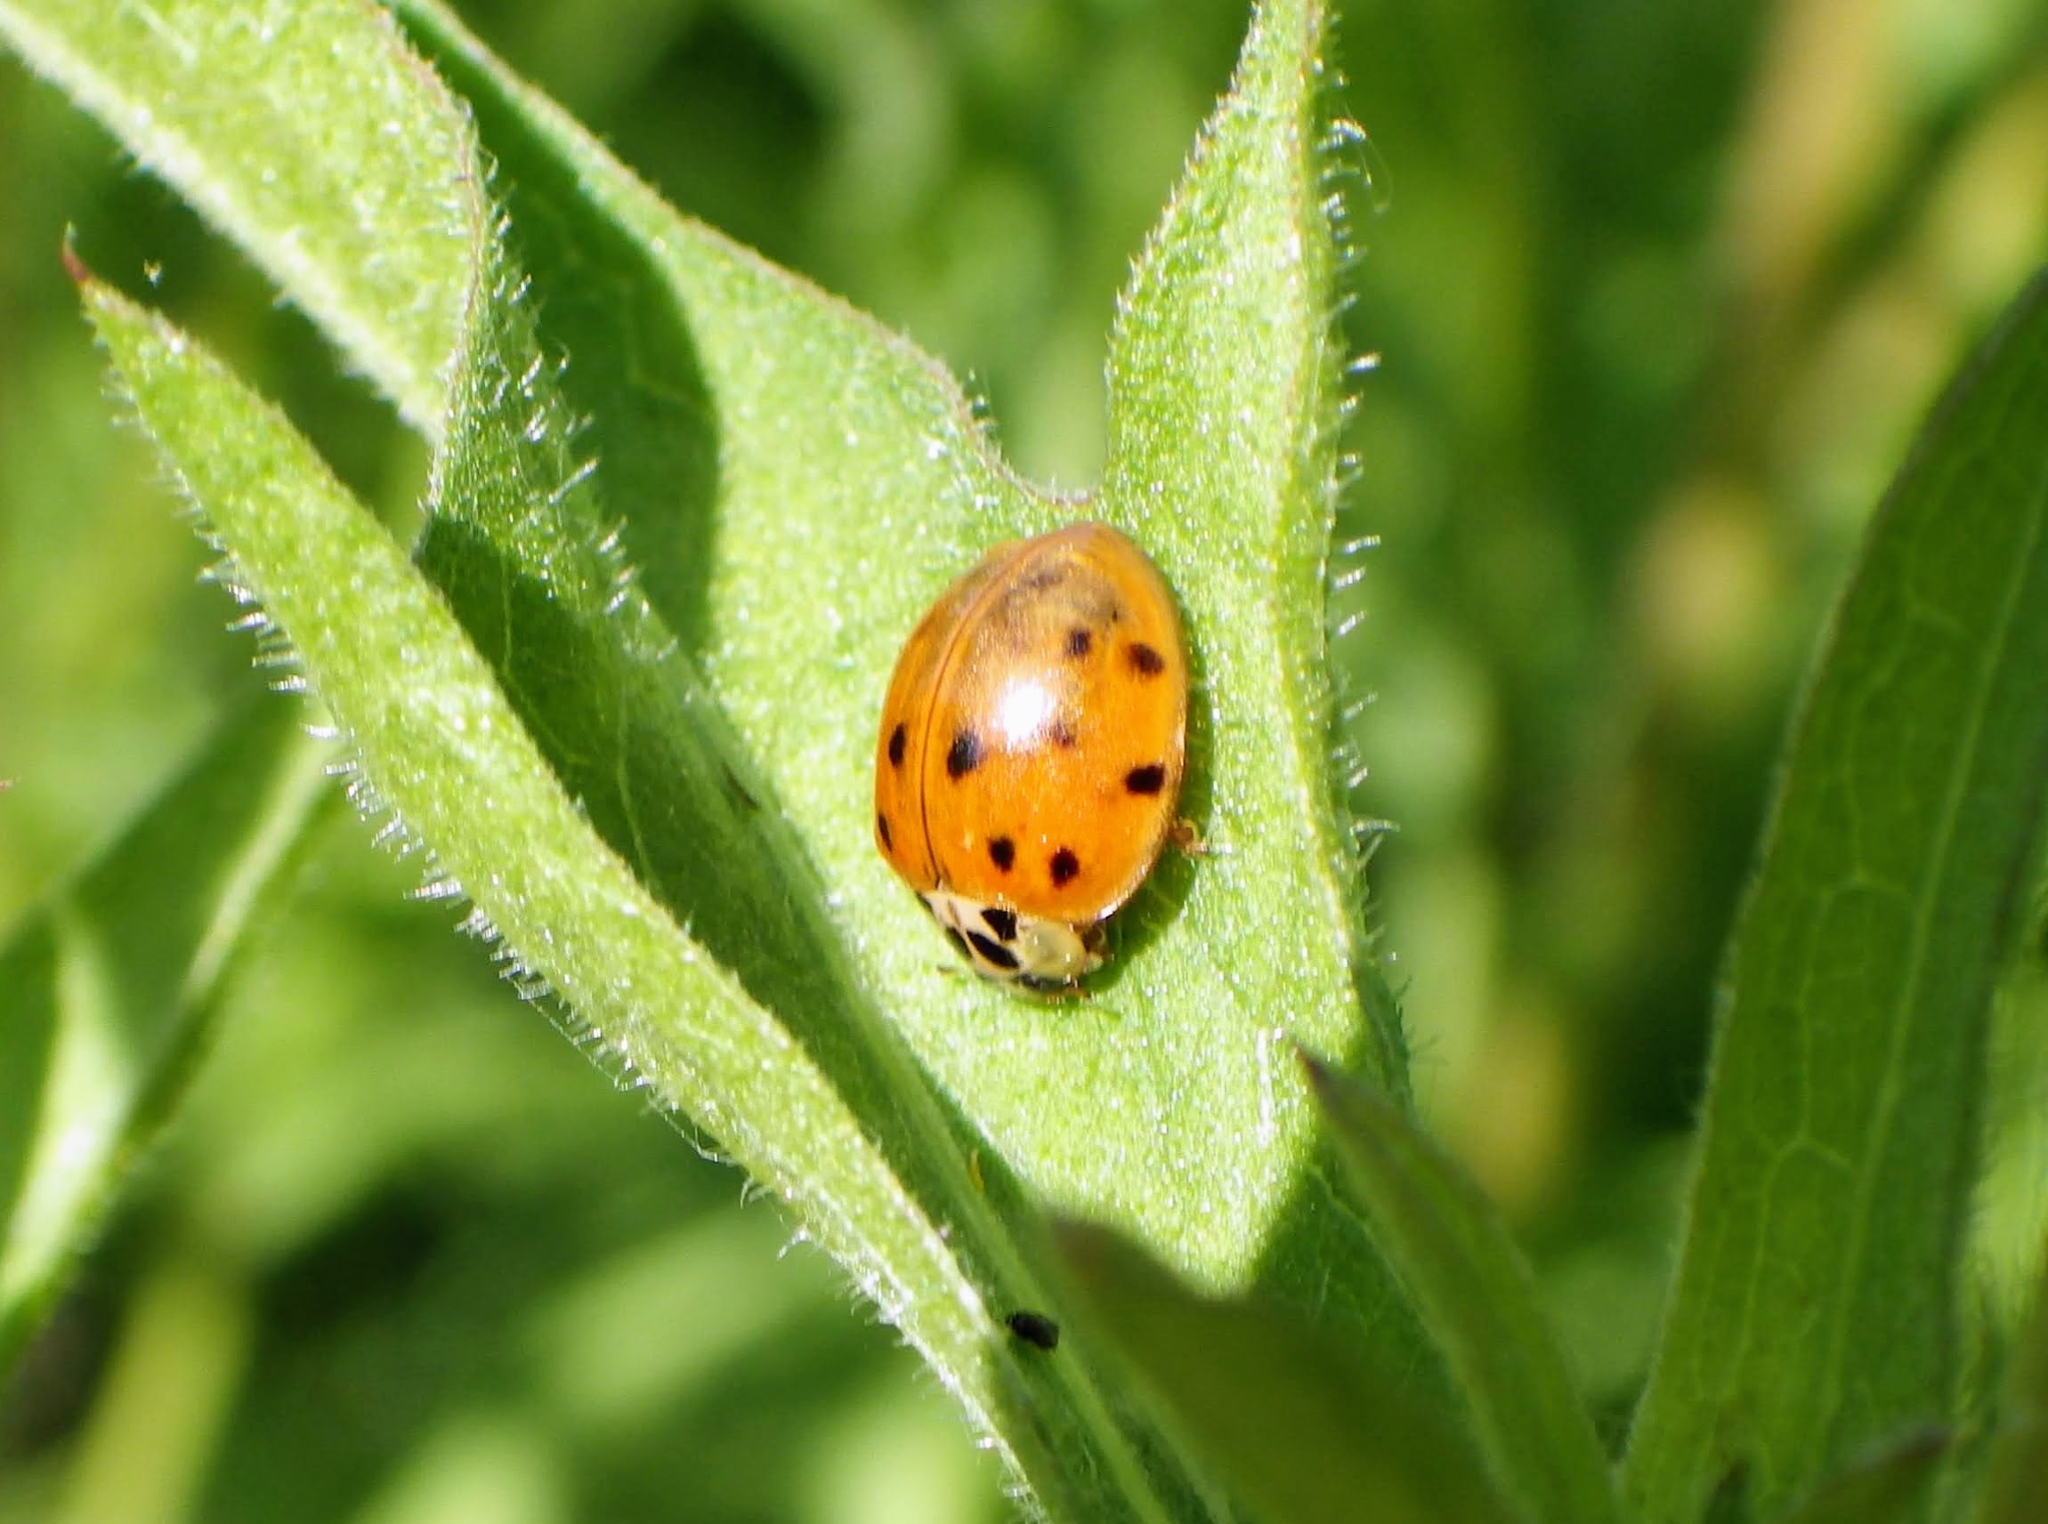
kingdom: Animalia
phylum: Arthropoda
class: Insecta
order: Coleoptera
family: Coccinellidae
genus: Harmonia
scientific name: Harmonia axyridis
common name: Harlequin ladybird
